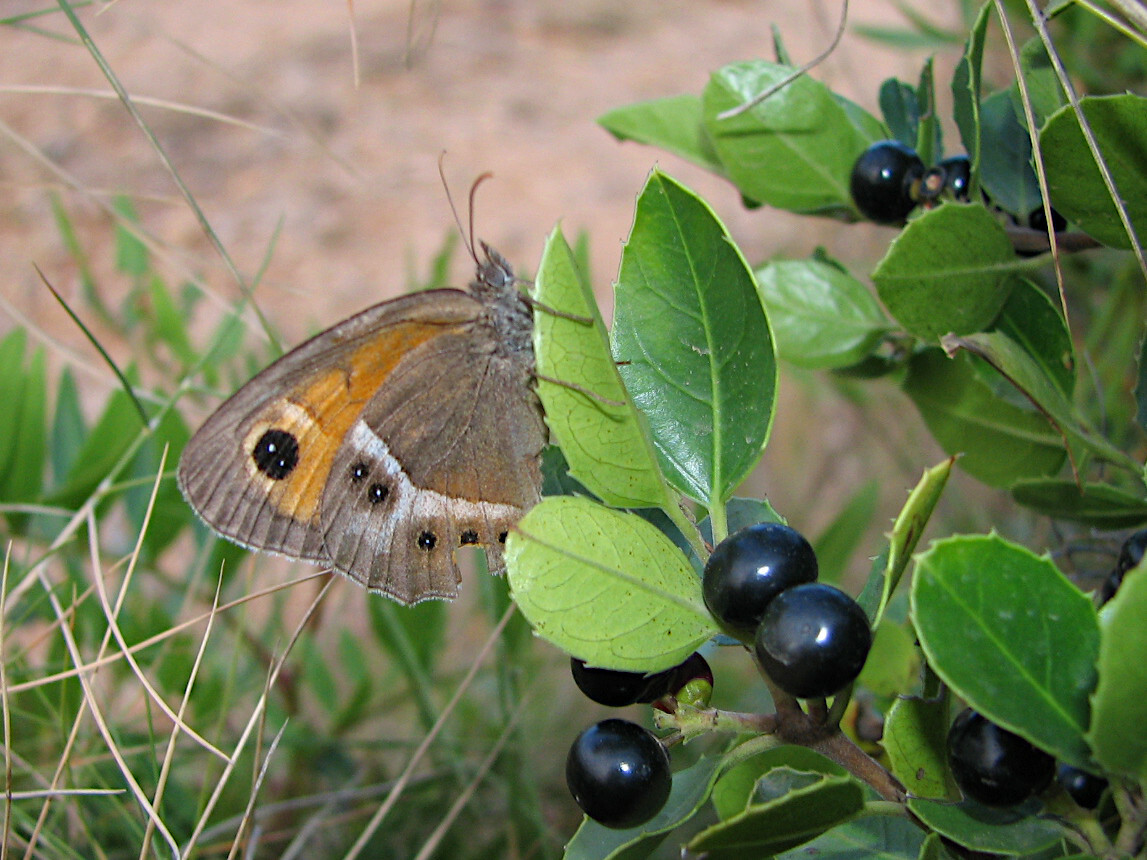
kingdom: Animalia
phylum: Arthropoda
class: Insecta
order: Lepidoptera
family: Nymphalidae
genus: Pyronia
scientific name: Pyronia bathseba
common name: Spanish gatekeeper
